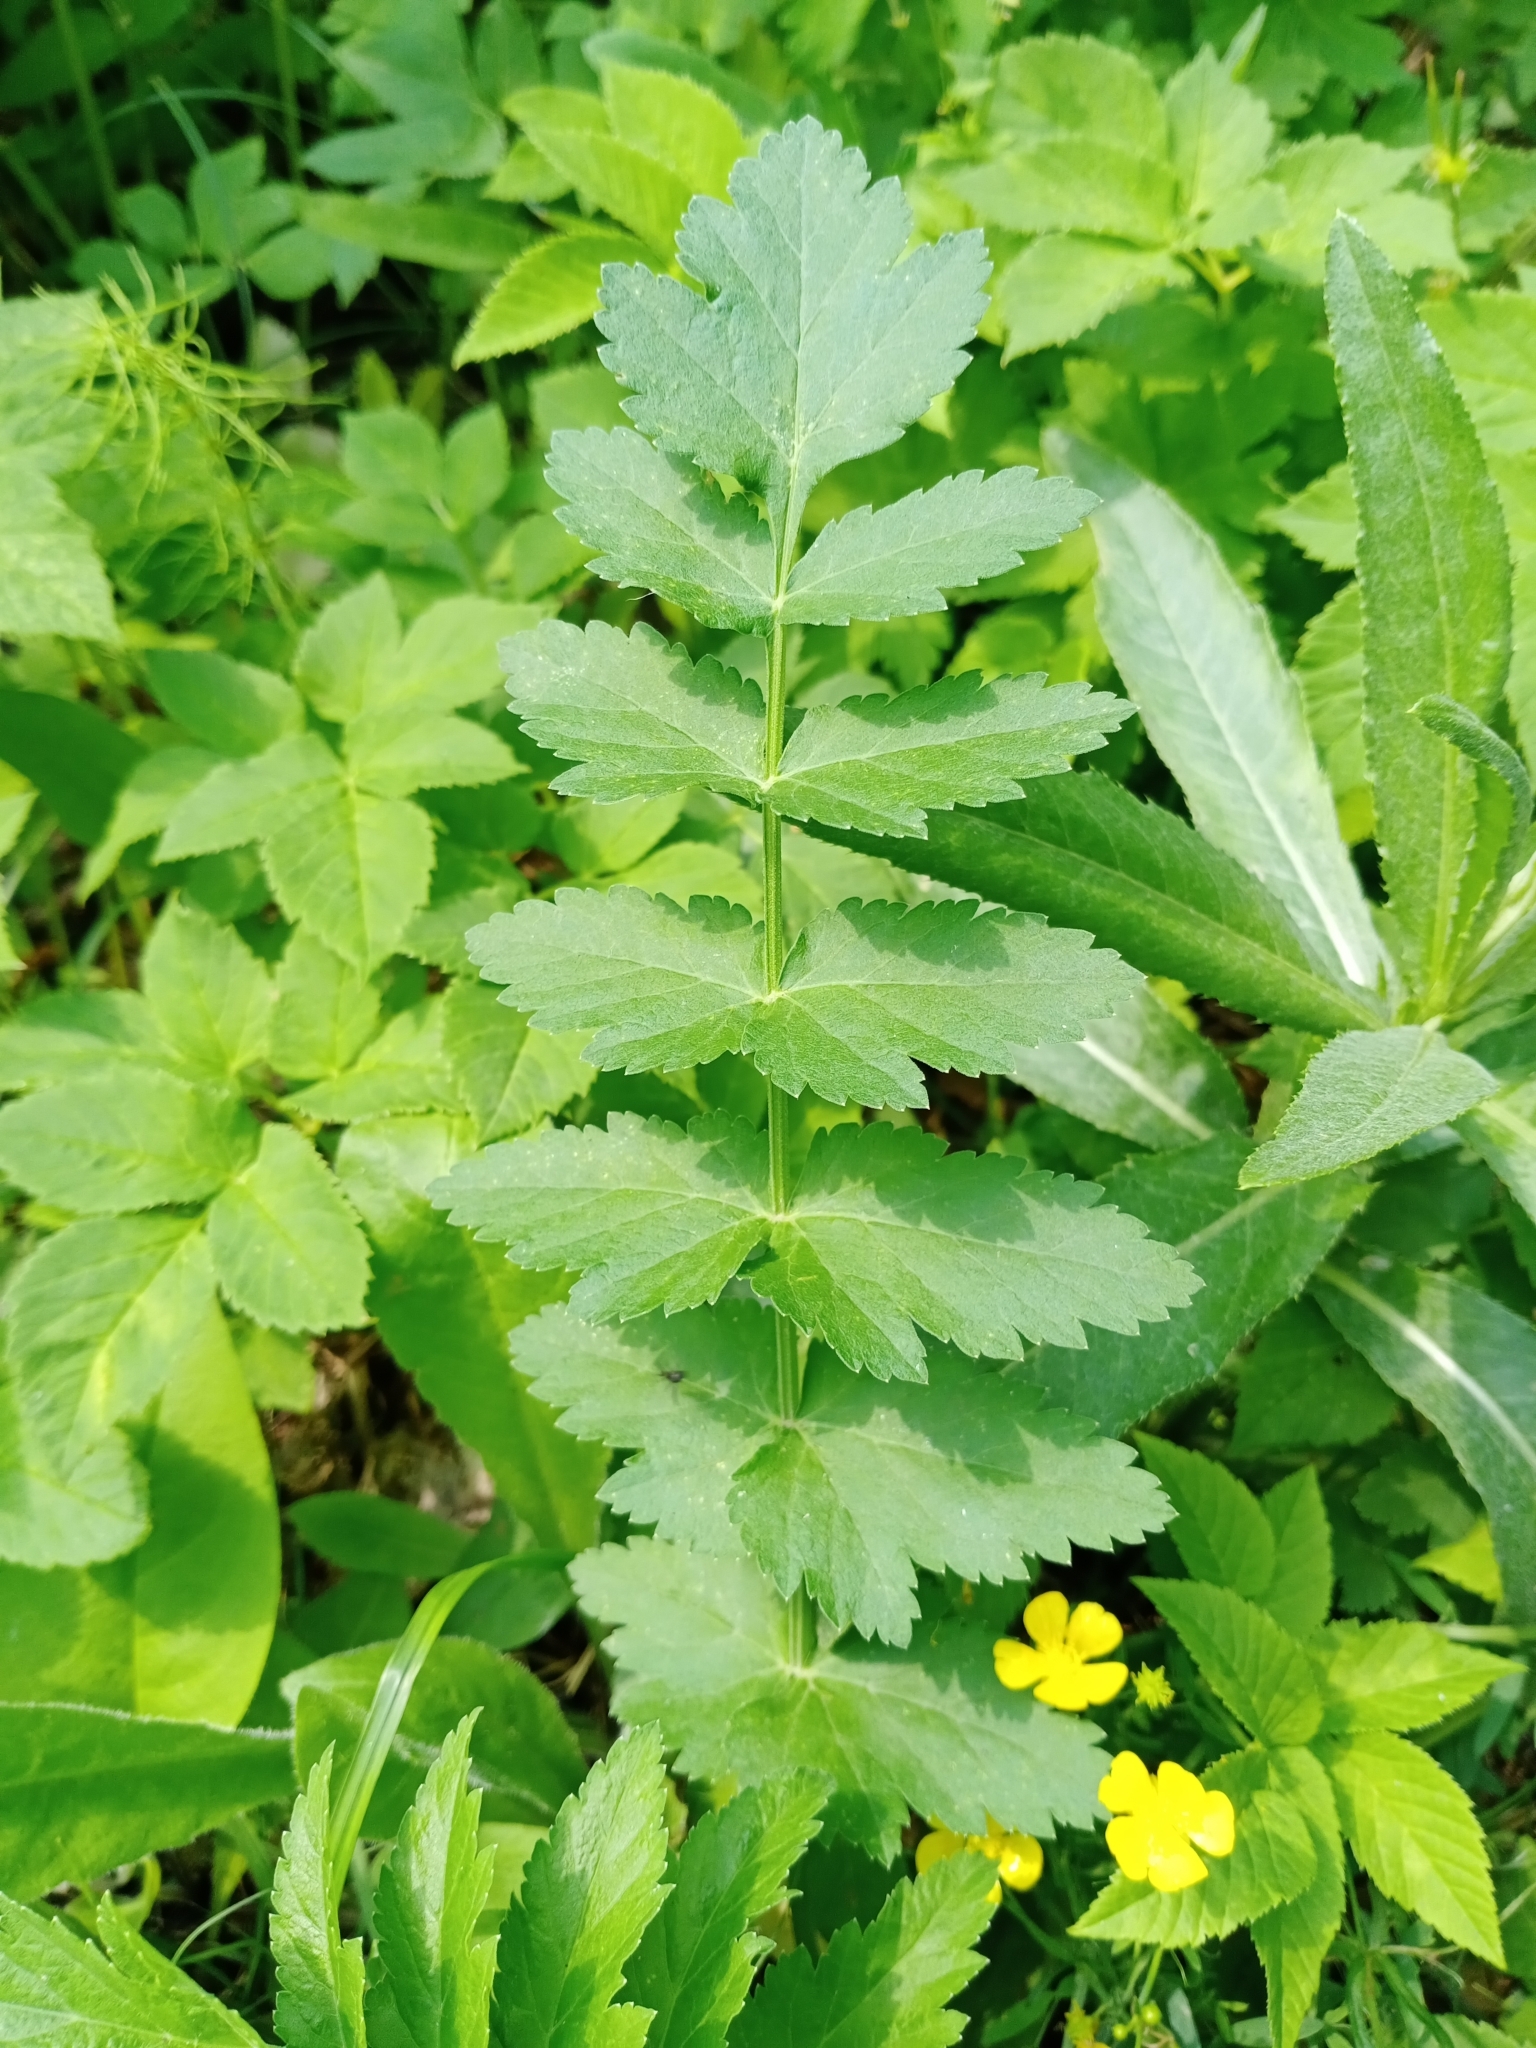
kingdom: Plantae
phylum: Tracheophyta
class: Magnoliopsida
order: Apiales
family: Apiaceae
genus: Pimpinella
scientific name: Pimpinella saxifraga
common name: Burnet-saxifrage
